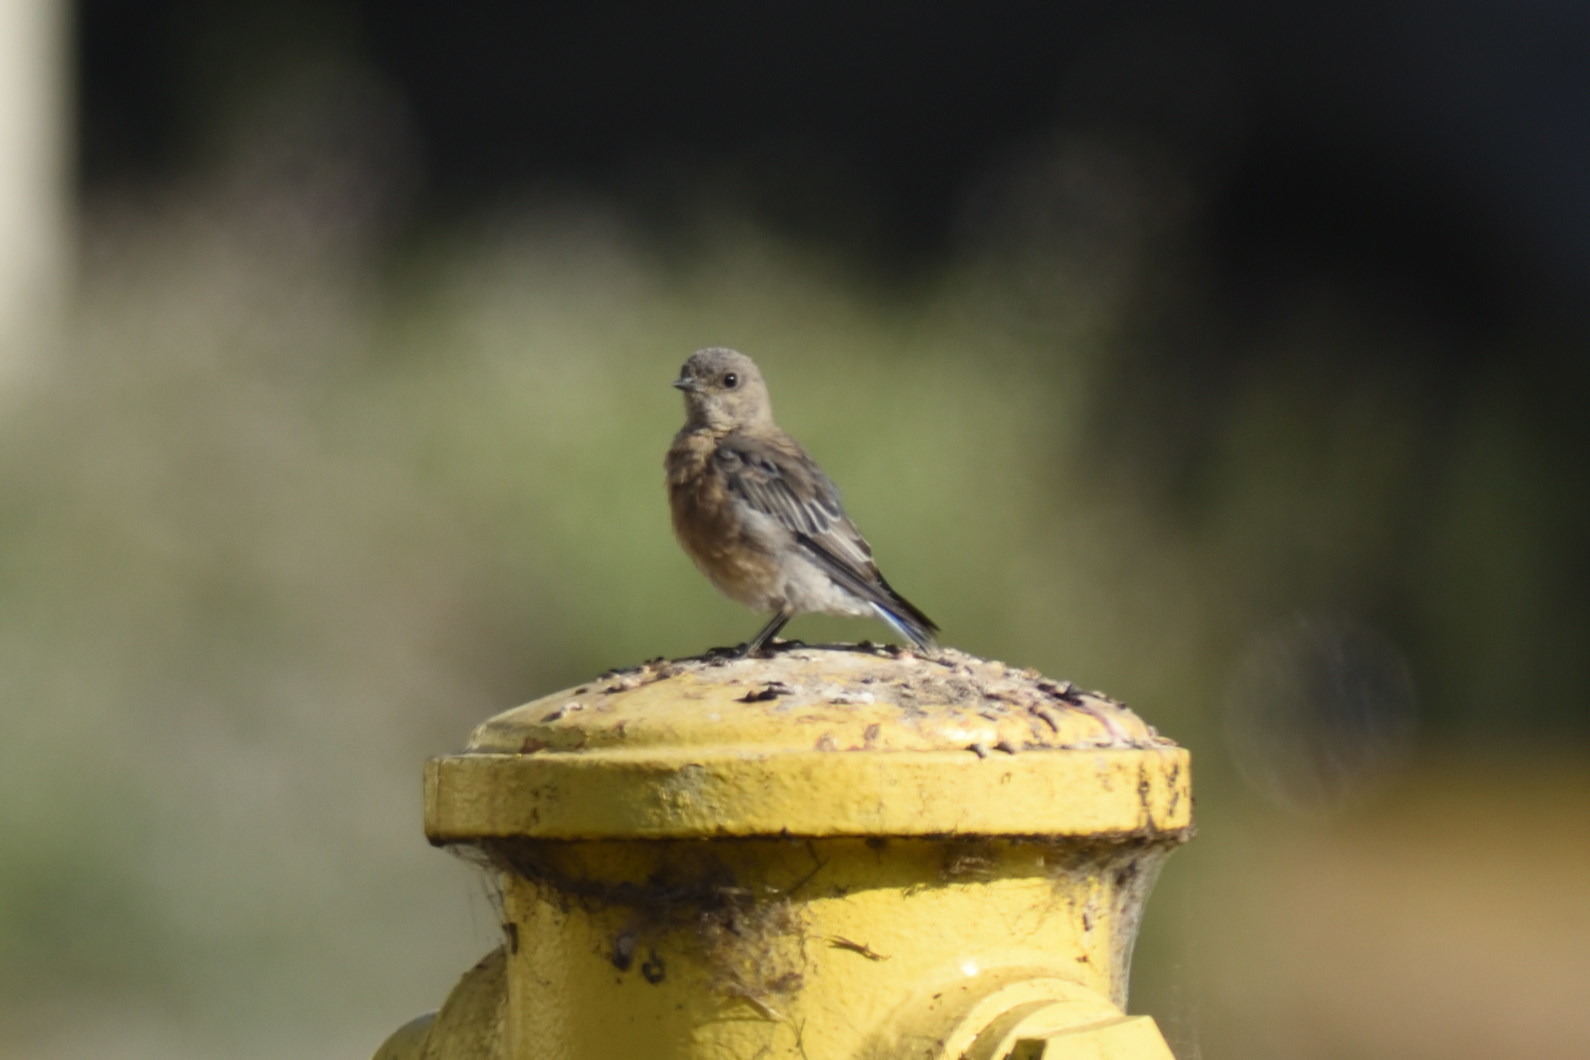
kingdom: Animalia
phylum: Chordata
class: Aves
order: Passeriformes
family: Turdidae
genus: Sialia
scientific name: Sialia mexicana
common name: Western bluebird
